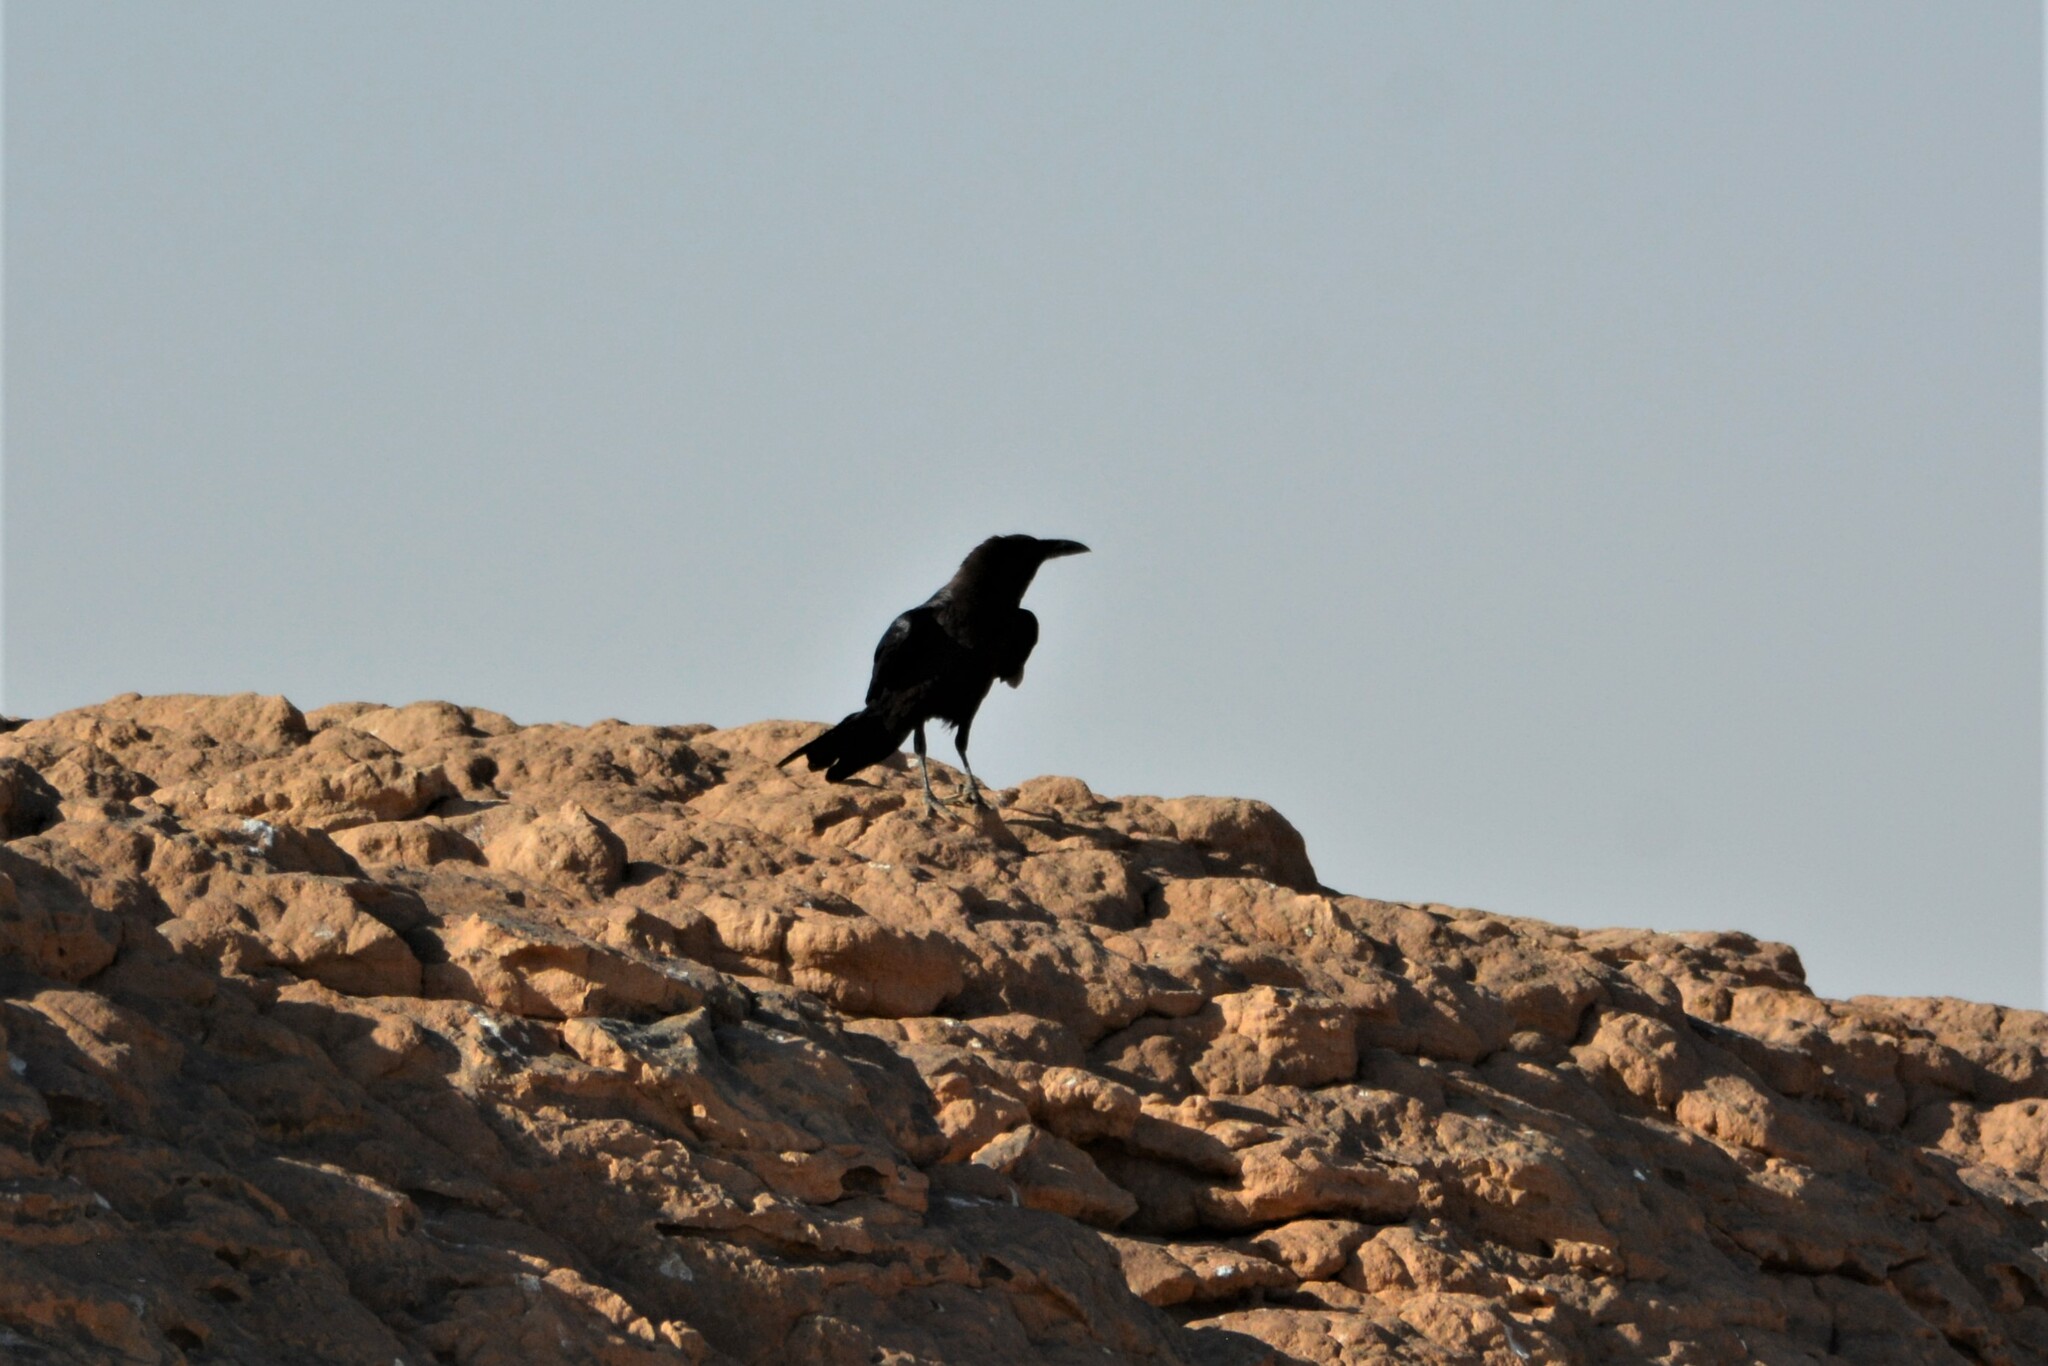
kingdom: Animalia
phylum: Chordata
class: Aves
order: Passeriformes
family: Corvidae
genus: Corvus
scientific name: Corvus ruficollis
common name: Brown-necked raven
